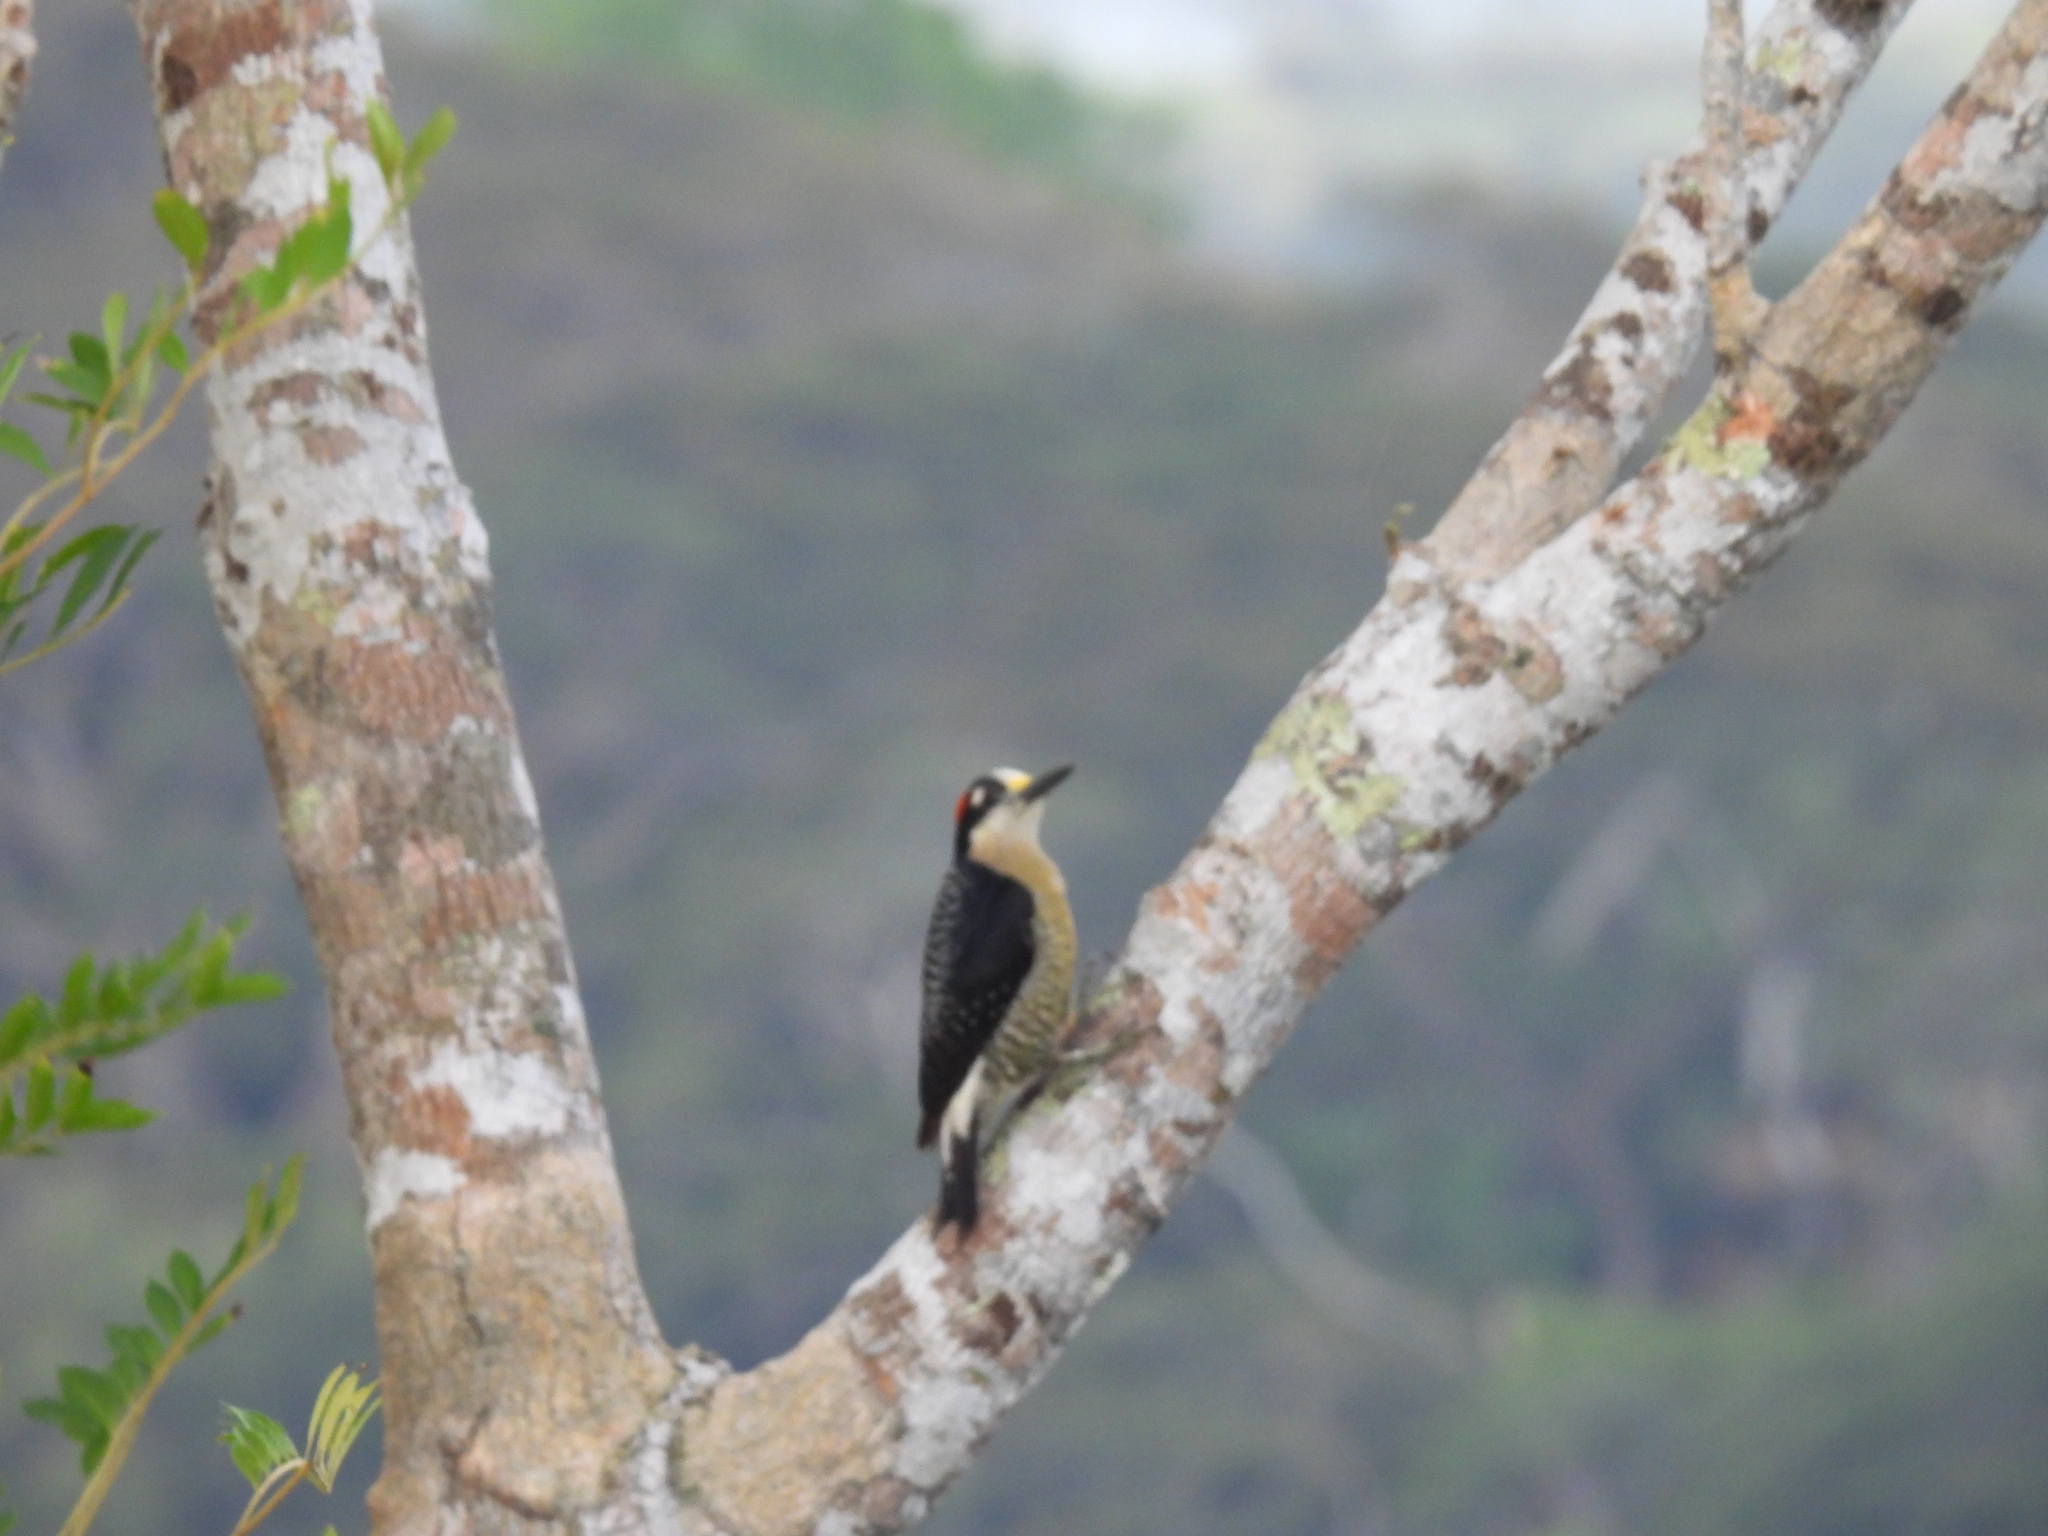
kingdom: Animalia
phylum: Chordata
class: Aves
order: Piciformes
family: Picidae
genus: Melanerpes
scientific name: Melanerpes pucherani
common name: Black-cheeked woodpecker
